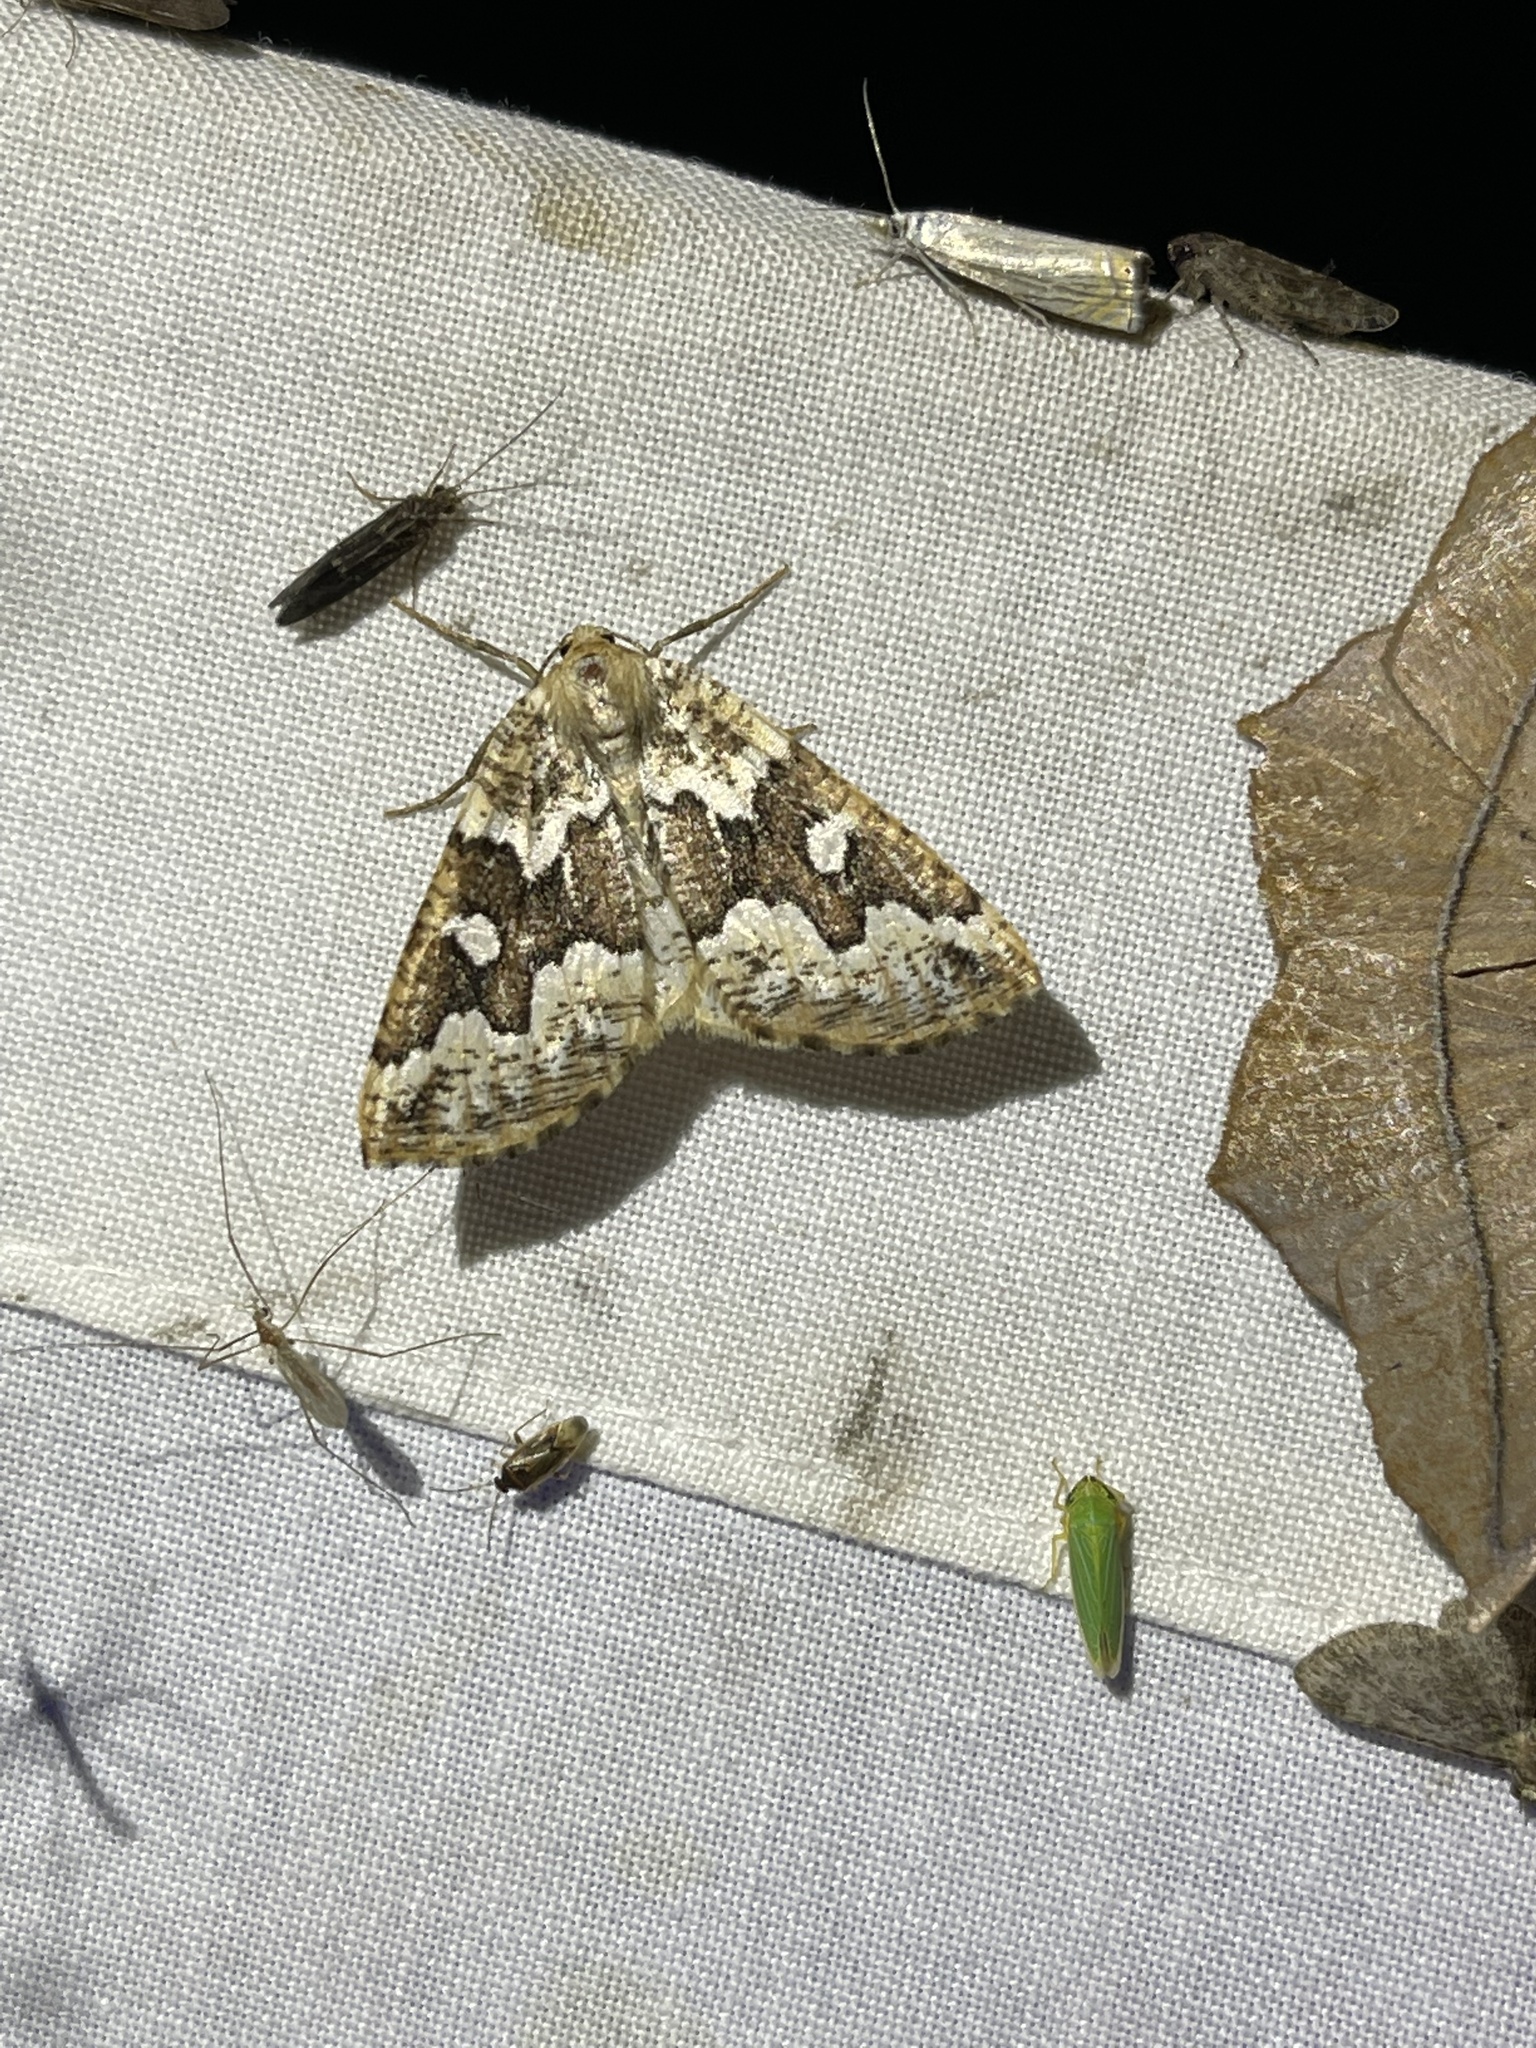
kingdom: Animalia
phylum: Arthropoda
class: Insecta
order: Lepidoptera
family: Geometridae
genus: Caripeta
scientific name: Caripeta divisata
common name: Gray spruce looper
